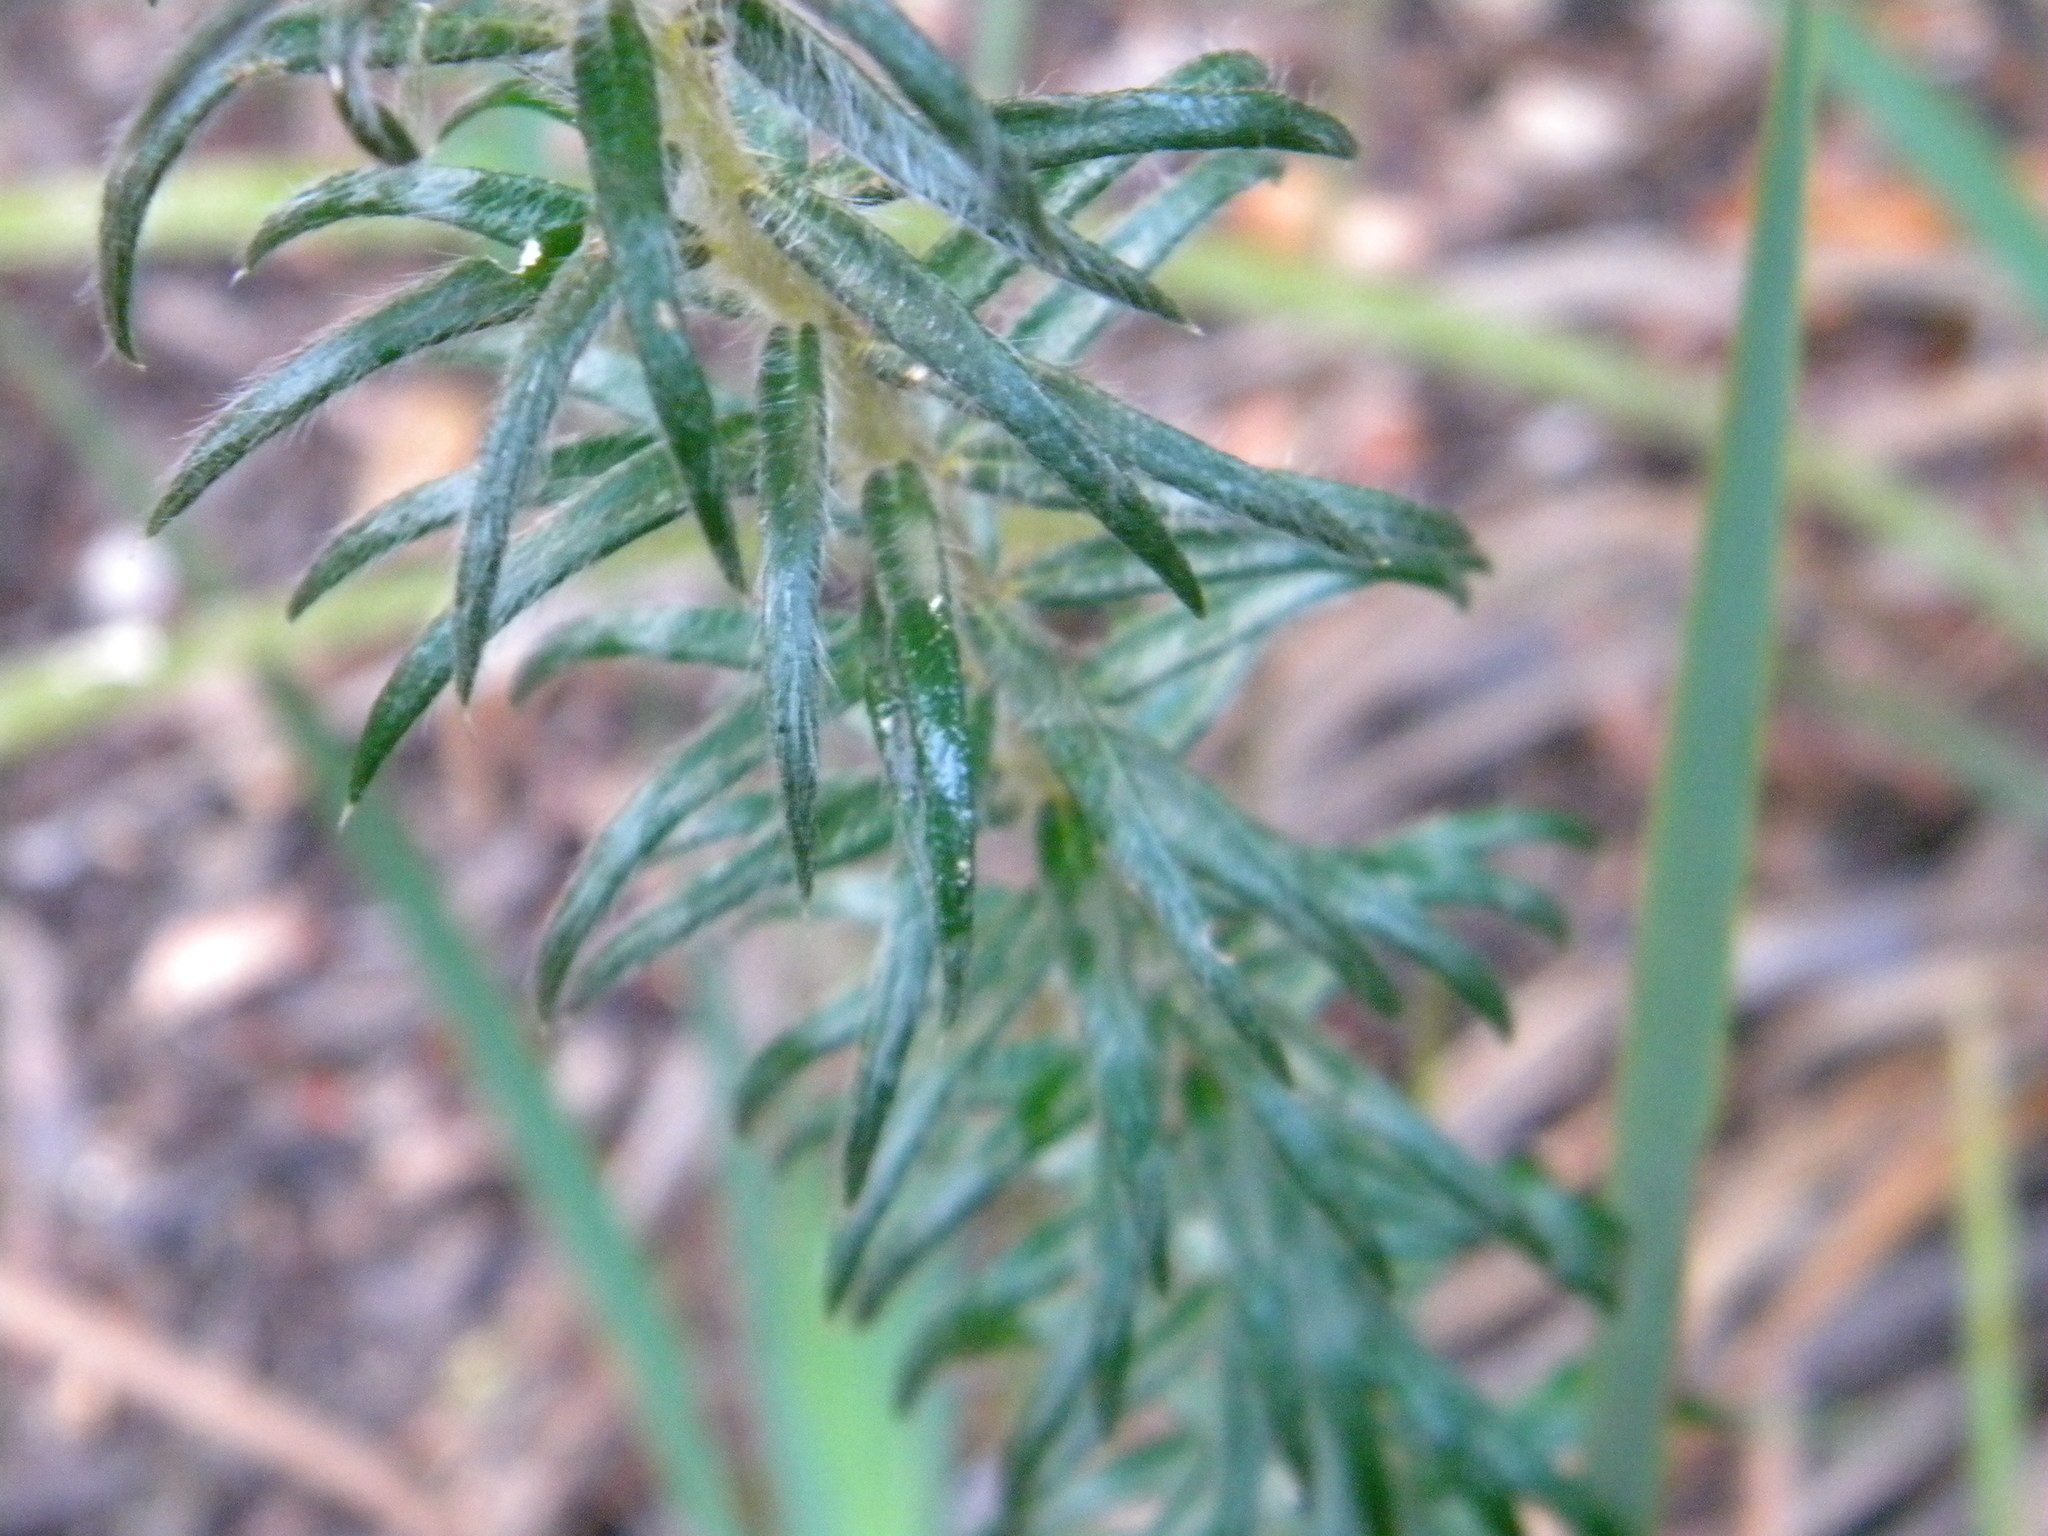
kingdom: Plantae
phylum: Tracheophyta
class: Magnoliopsida
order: Rosales
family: Rhamnaceae
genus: Phylica
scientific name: Phylica pubescens
